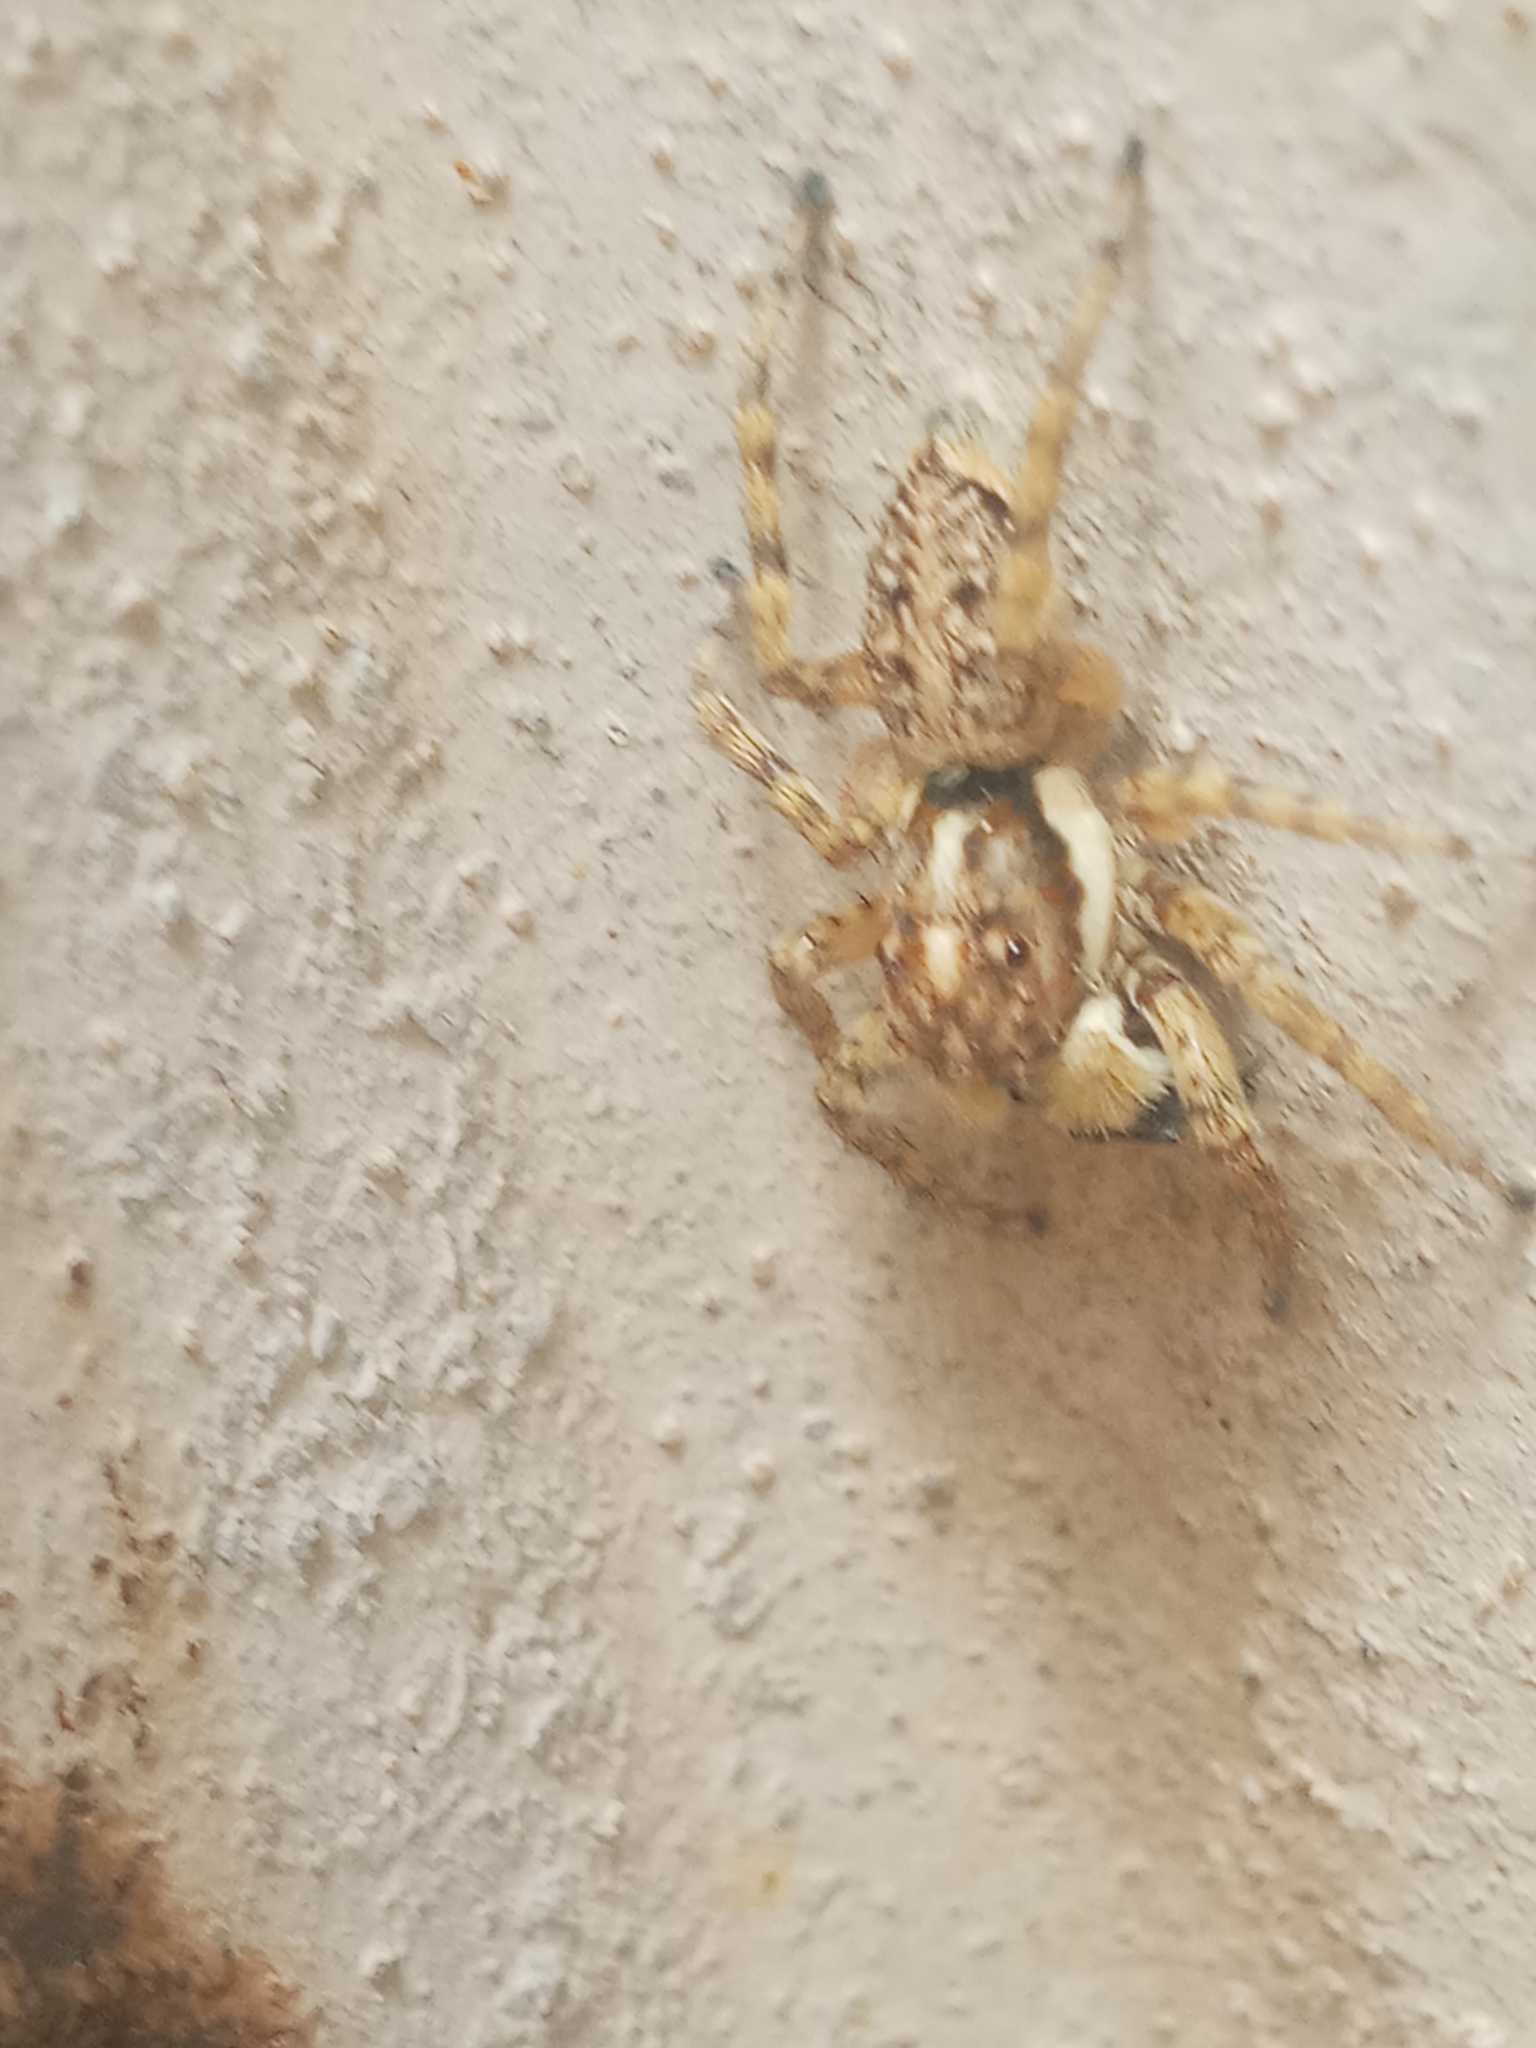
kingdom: Animalia
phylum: Arthropoda
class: Arachnida
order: Araneae
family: Salticidae
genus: Menemerus
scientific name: Menemerus semilimbatus
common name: Jumping spider
